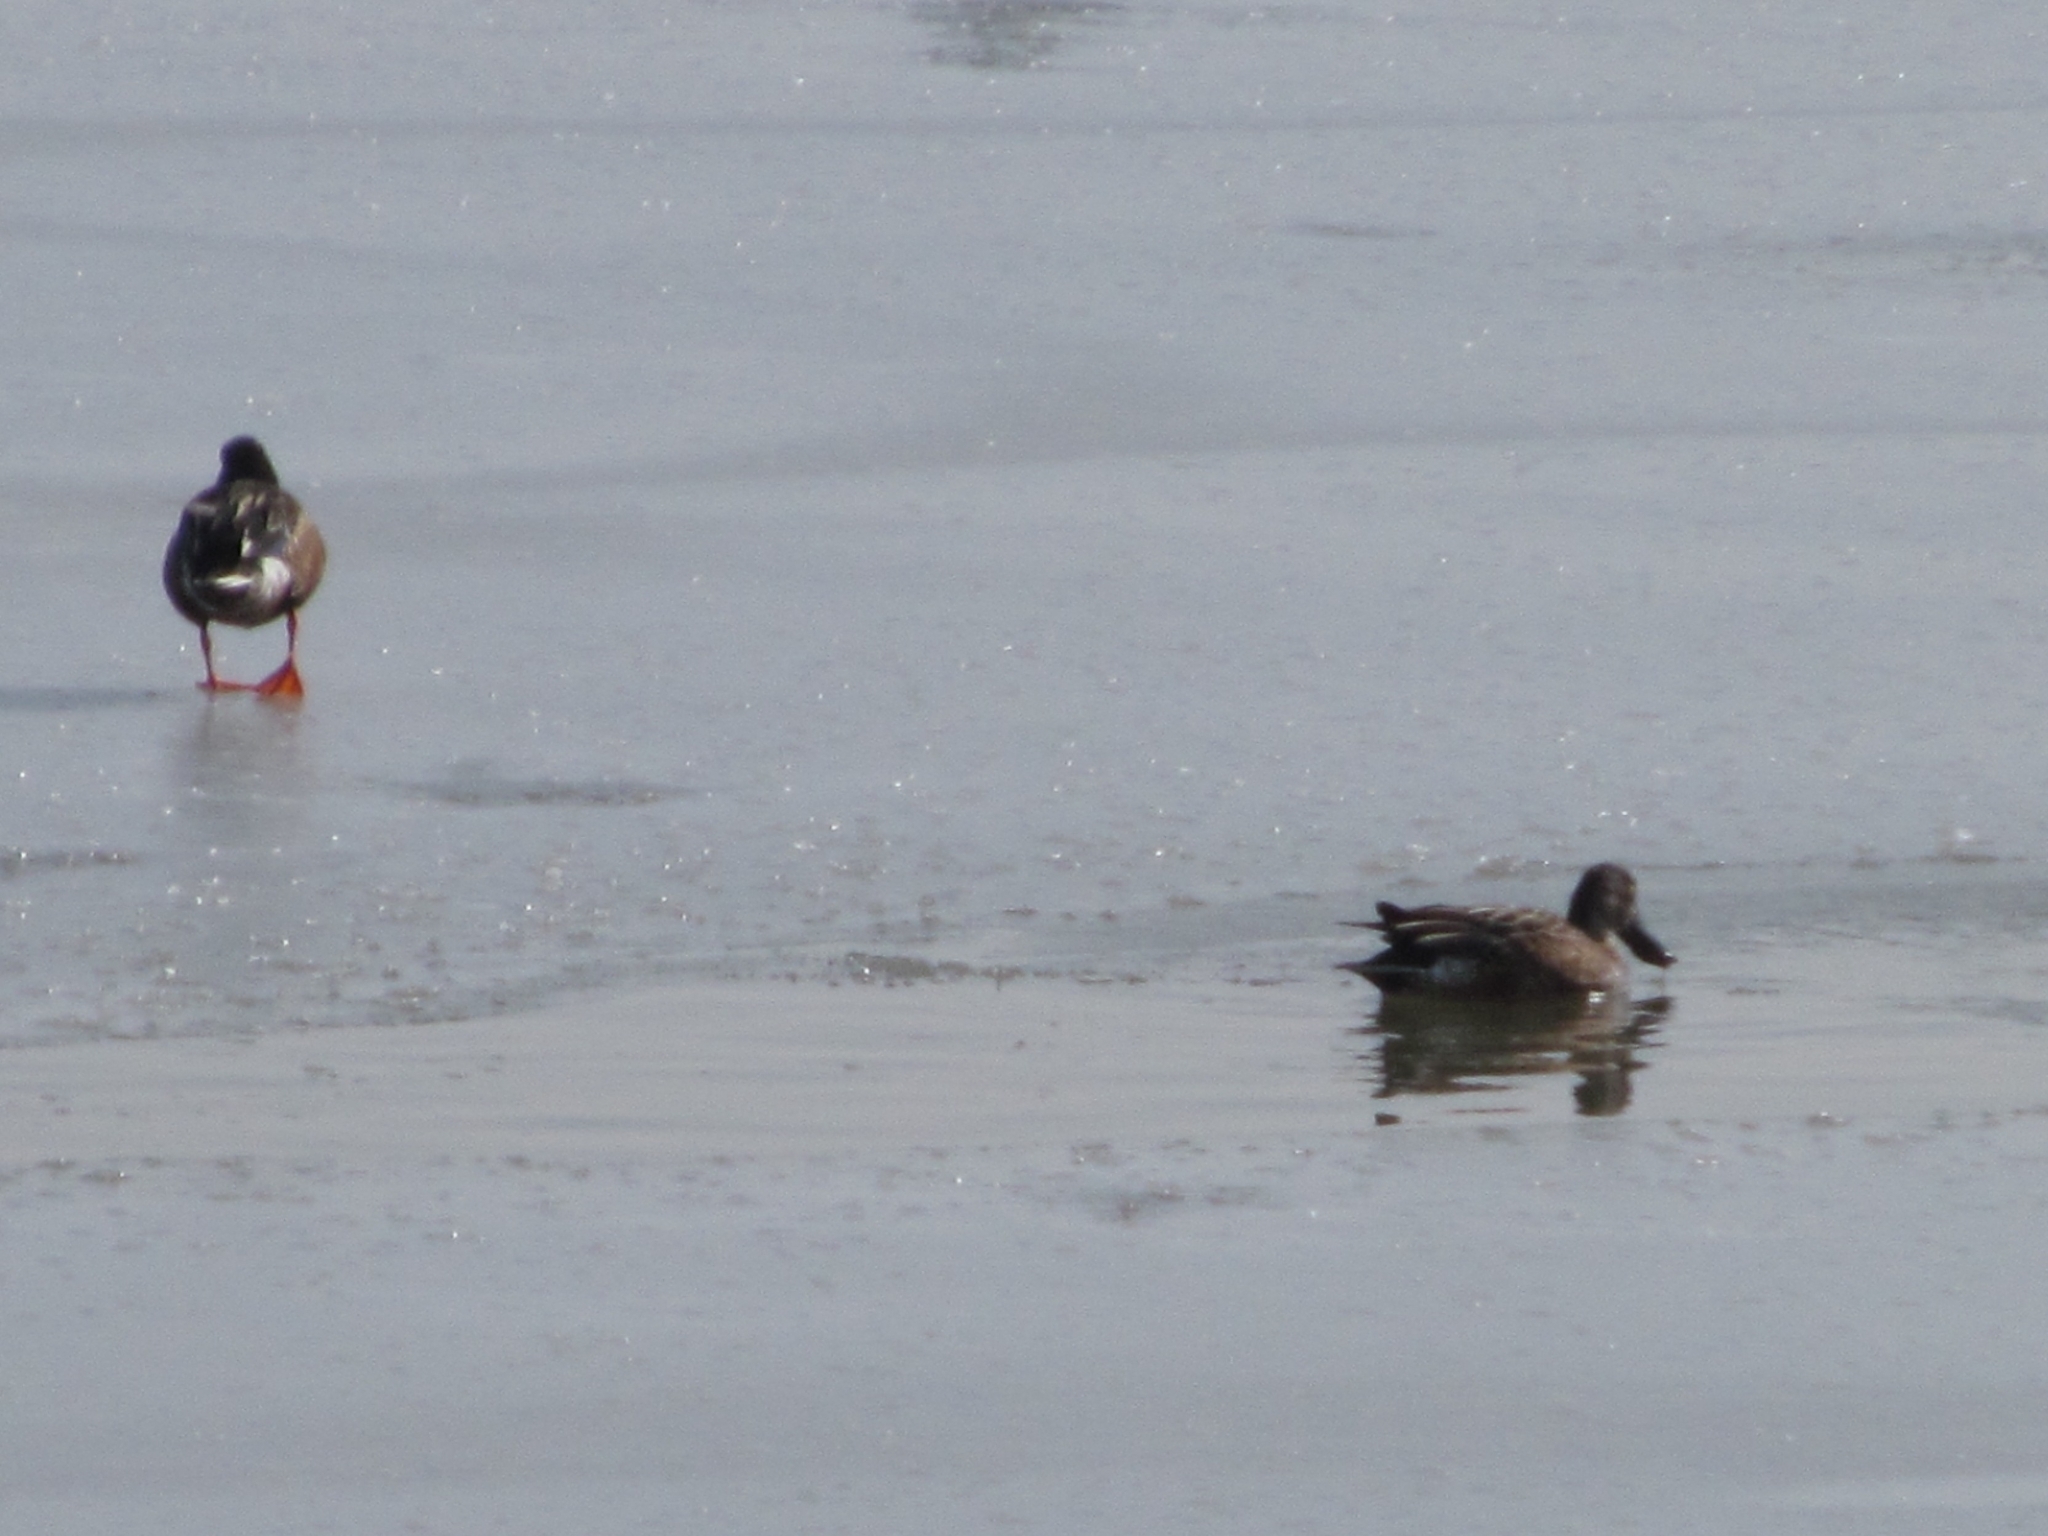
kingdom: Animalia
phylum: Chordata
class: Aves
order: Anseriformes
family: Anatidae
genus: Spatula
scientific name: Spatula clypeata
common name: Northern shoveler
